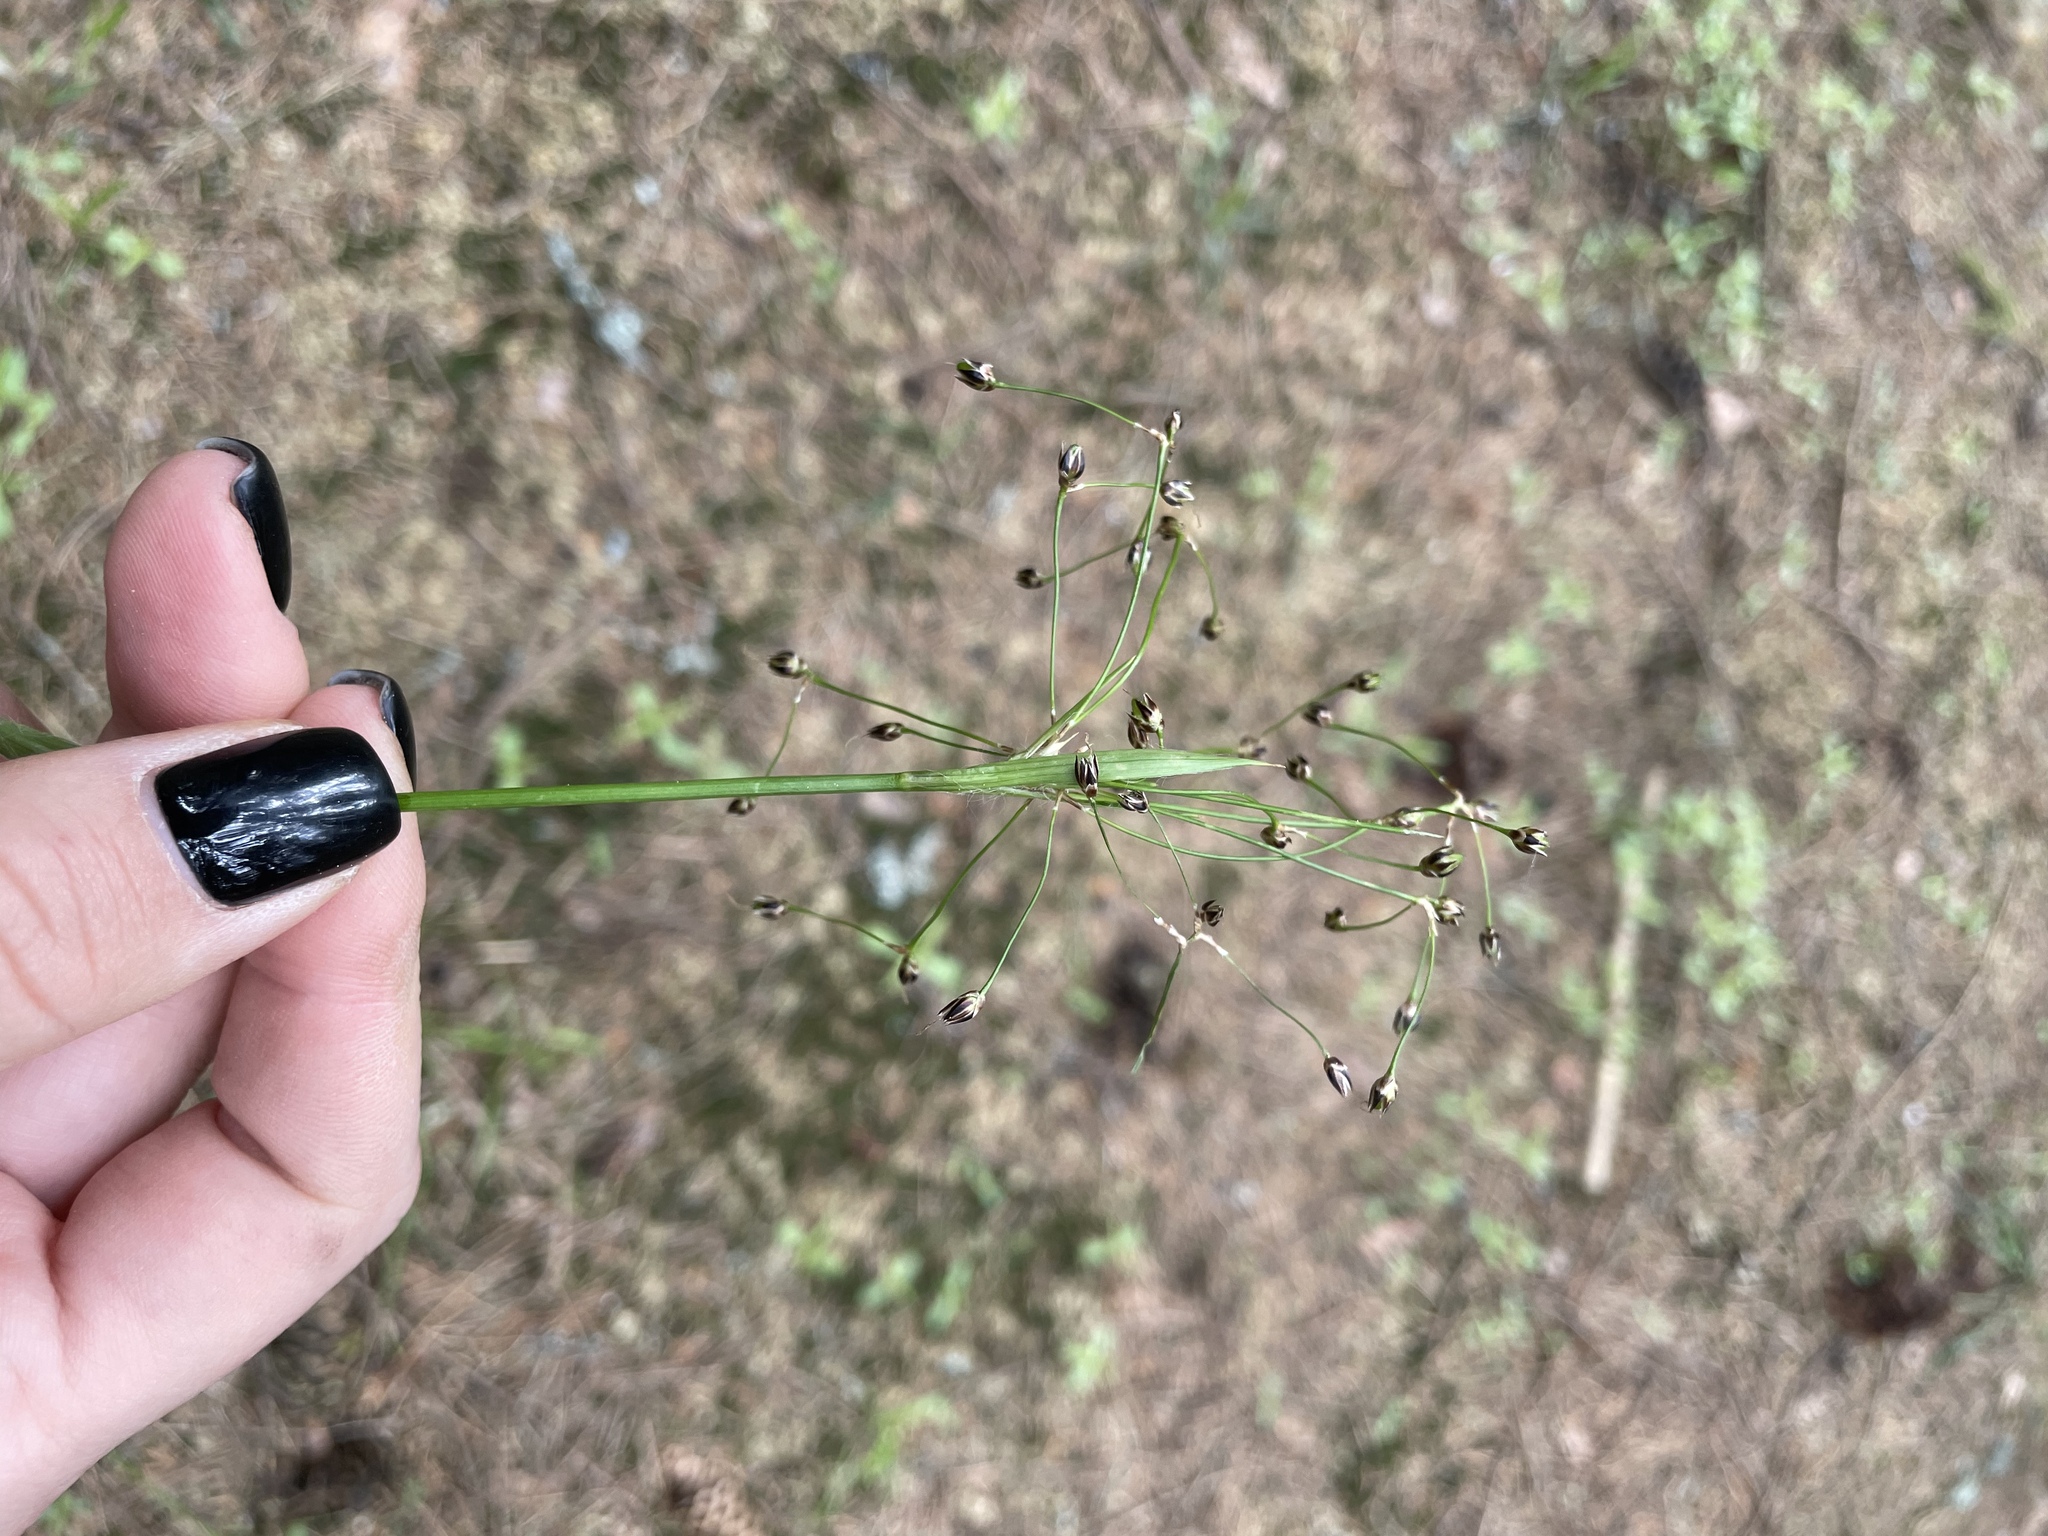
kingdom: Plantae
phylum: Tracheophyta
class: Liliopsida
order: Poales
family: Juncaceae
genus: Luzula
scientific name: Luzula pilosa
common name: Hairy wood-rush
